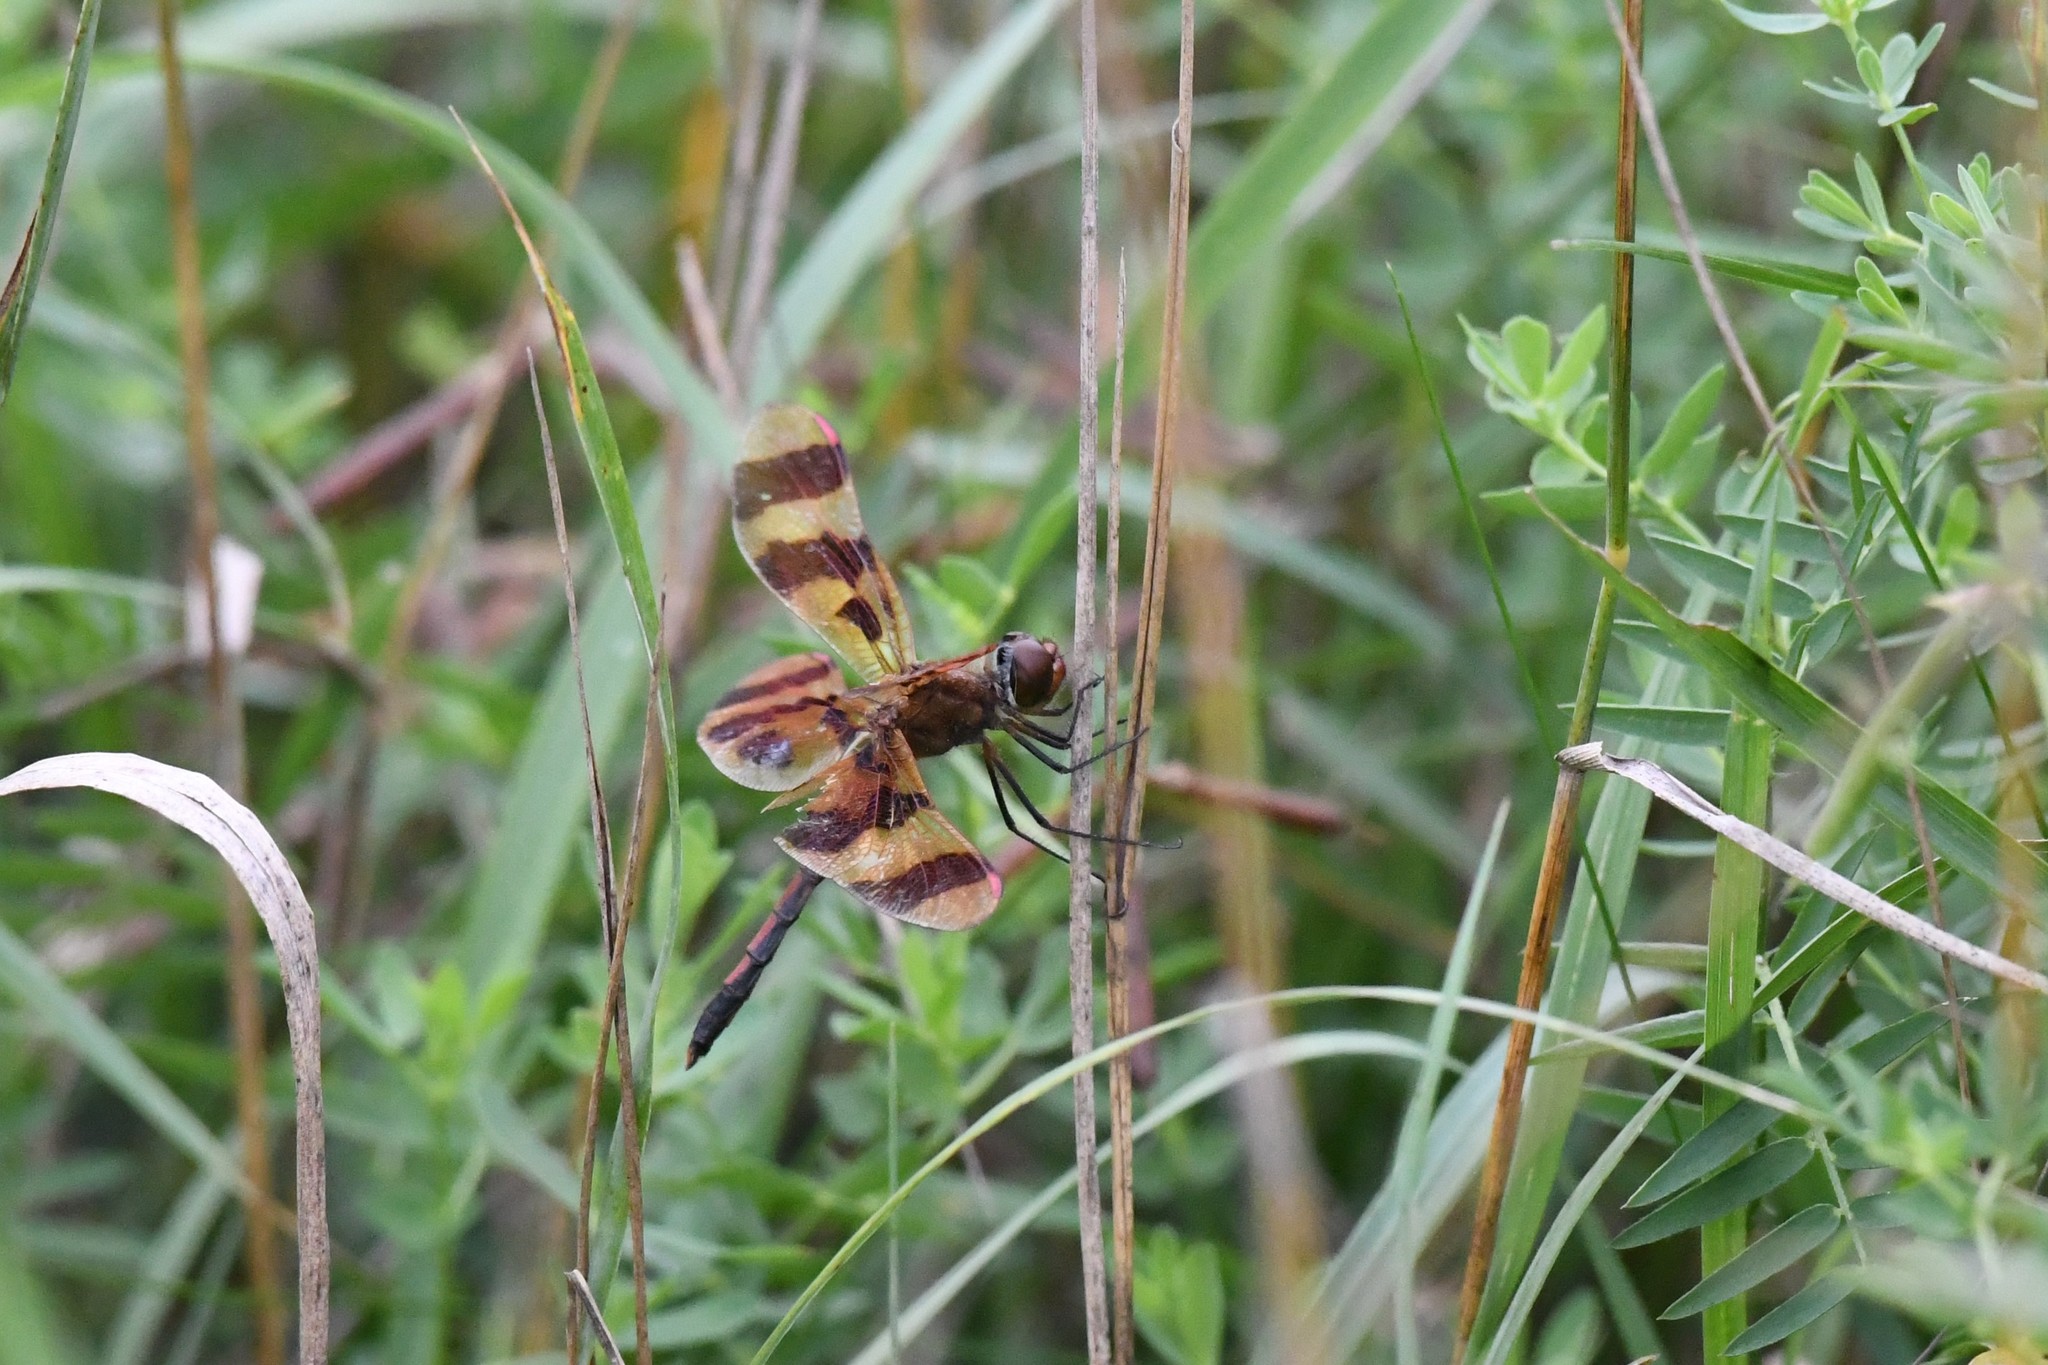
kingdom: Animalia
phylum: Arthropoda
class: Insecta
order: Odonata
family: Libellulidae
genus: Celithemis
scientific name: Celithemis eponina
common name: Halloween pennant
